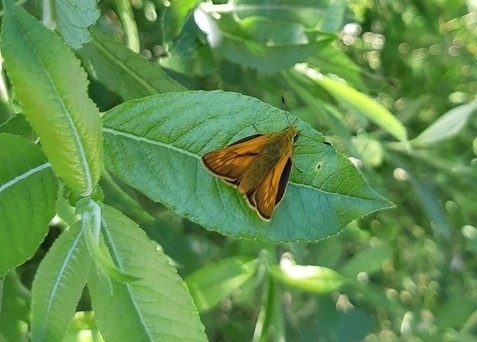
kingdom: Animalia
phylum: Arthropoda
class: Insecta
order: Lepidoptera
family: Hesperiidae
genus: Ochlodes
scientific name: Ochlodes venata
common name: Large skipper
